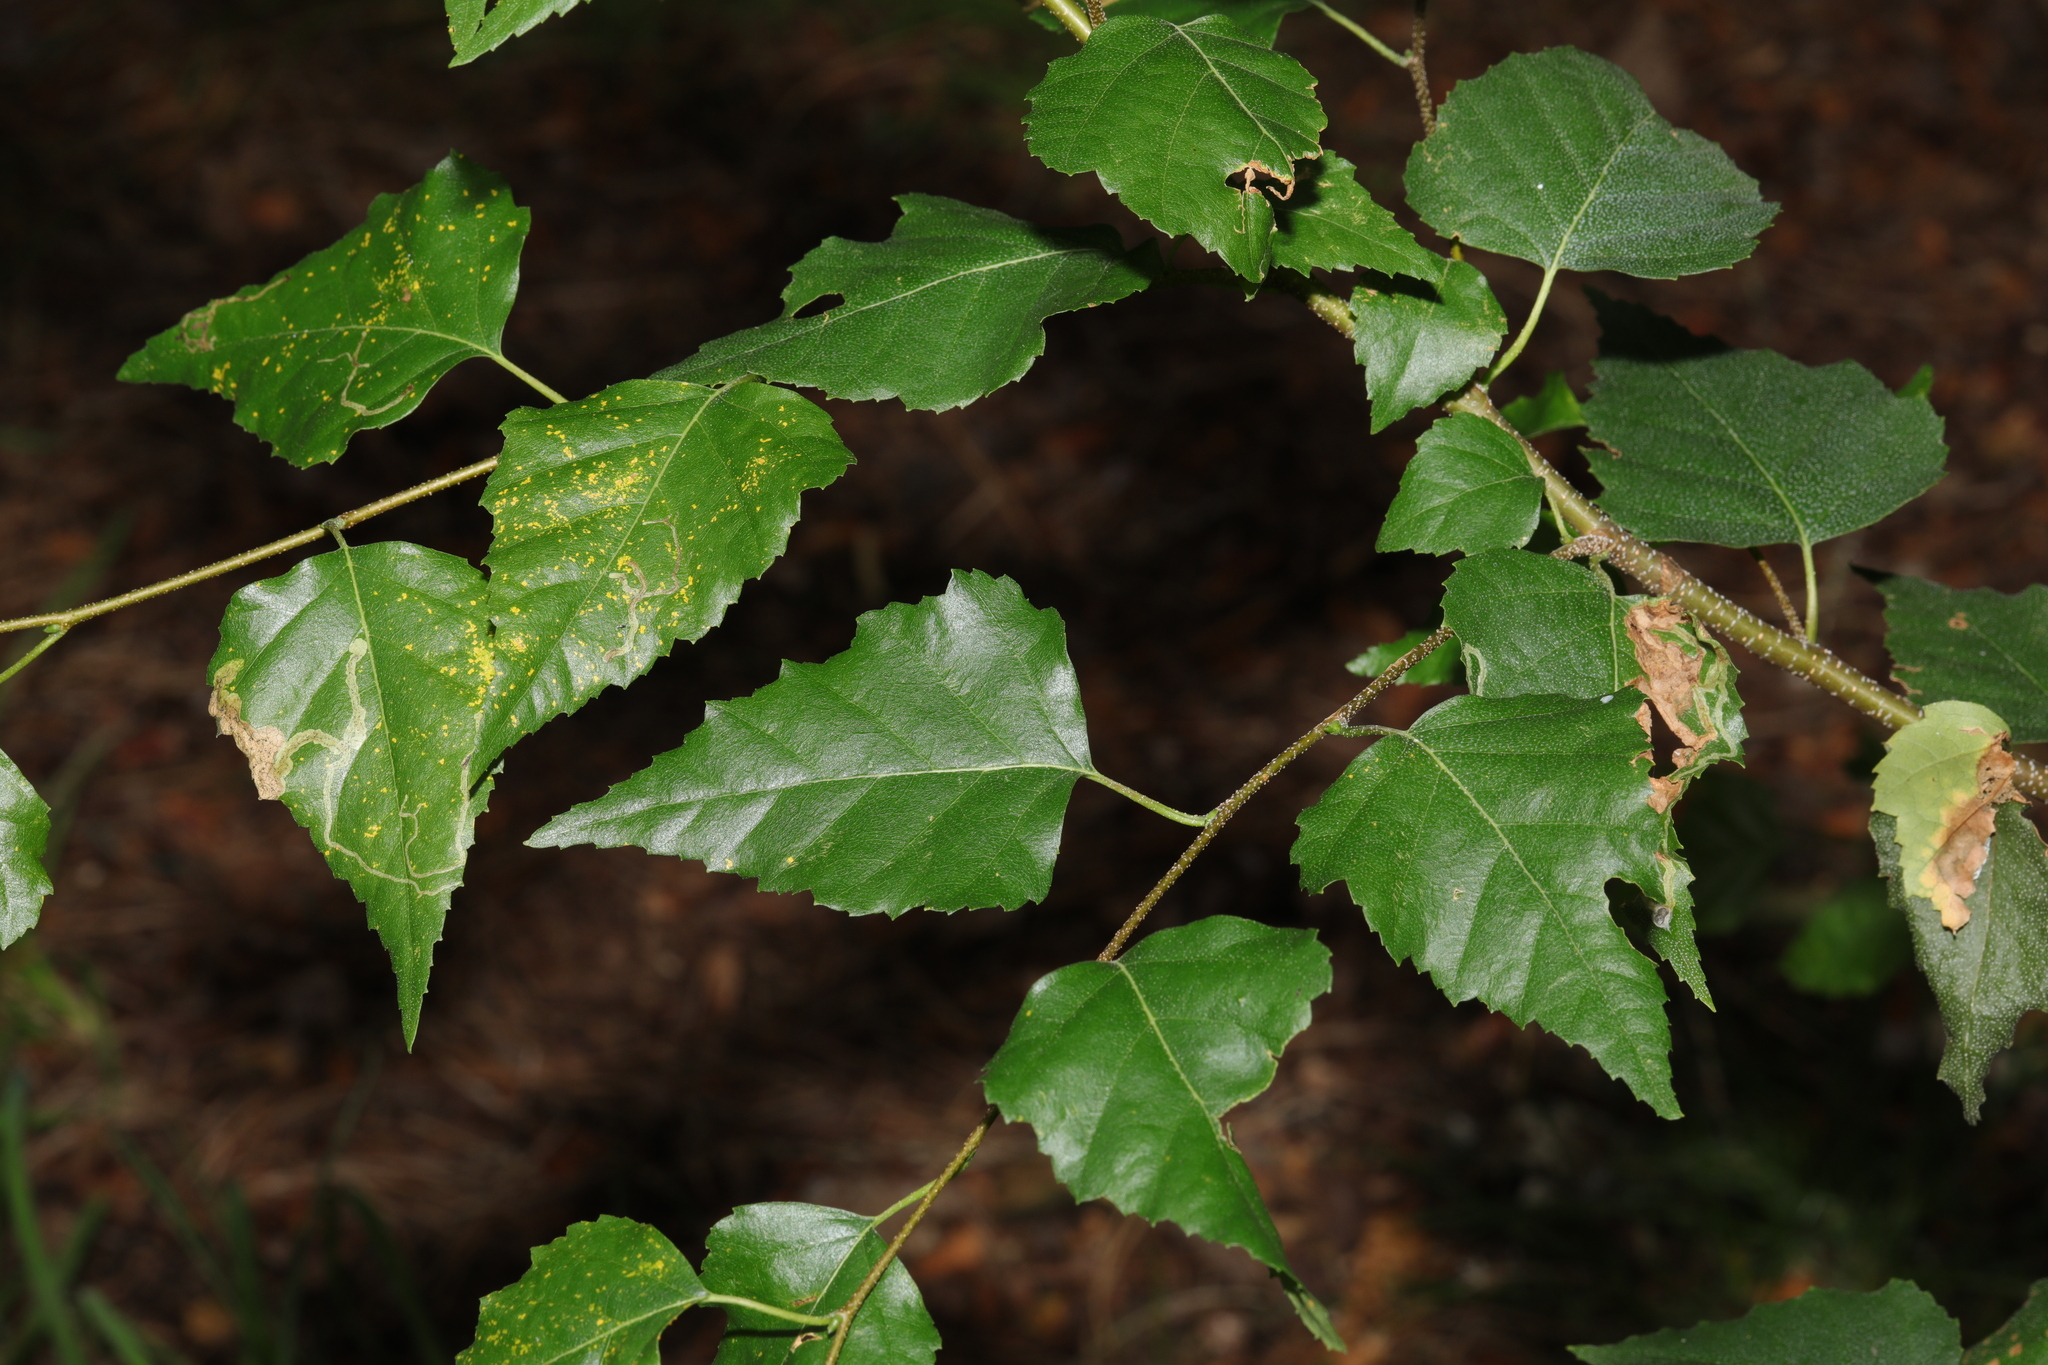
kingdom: Plantae
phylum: Tracheophyta
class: Magnoliopsida
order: Fagales
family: Betulaceae
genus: Betula
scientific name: Betula pendula
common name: Silver birch
